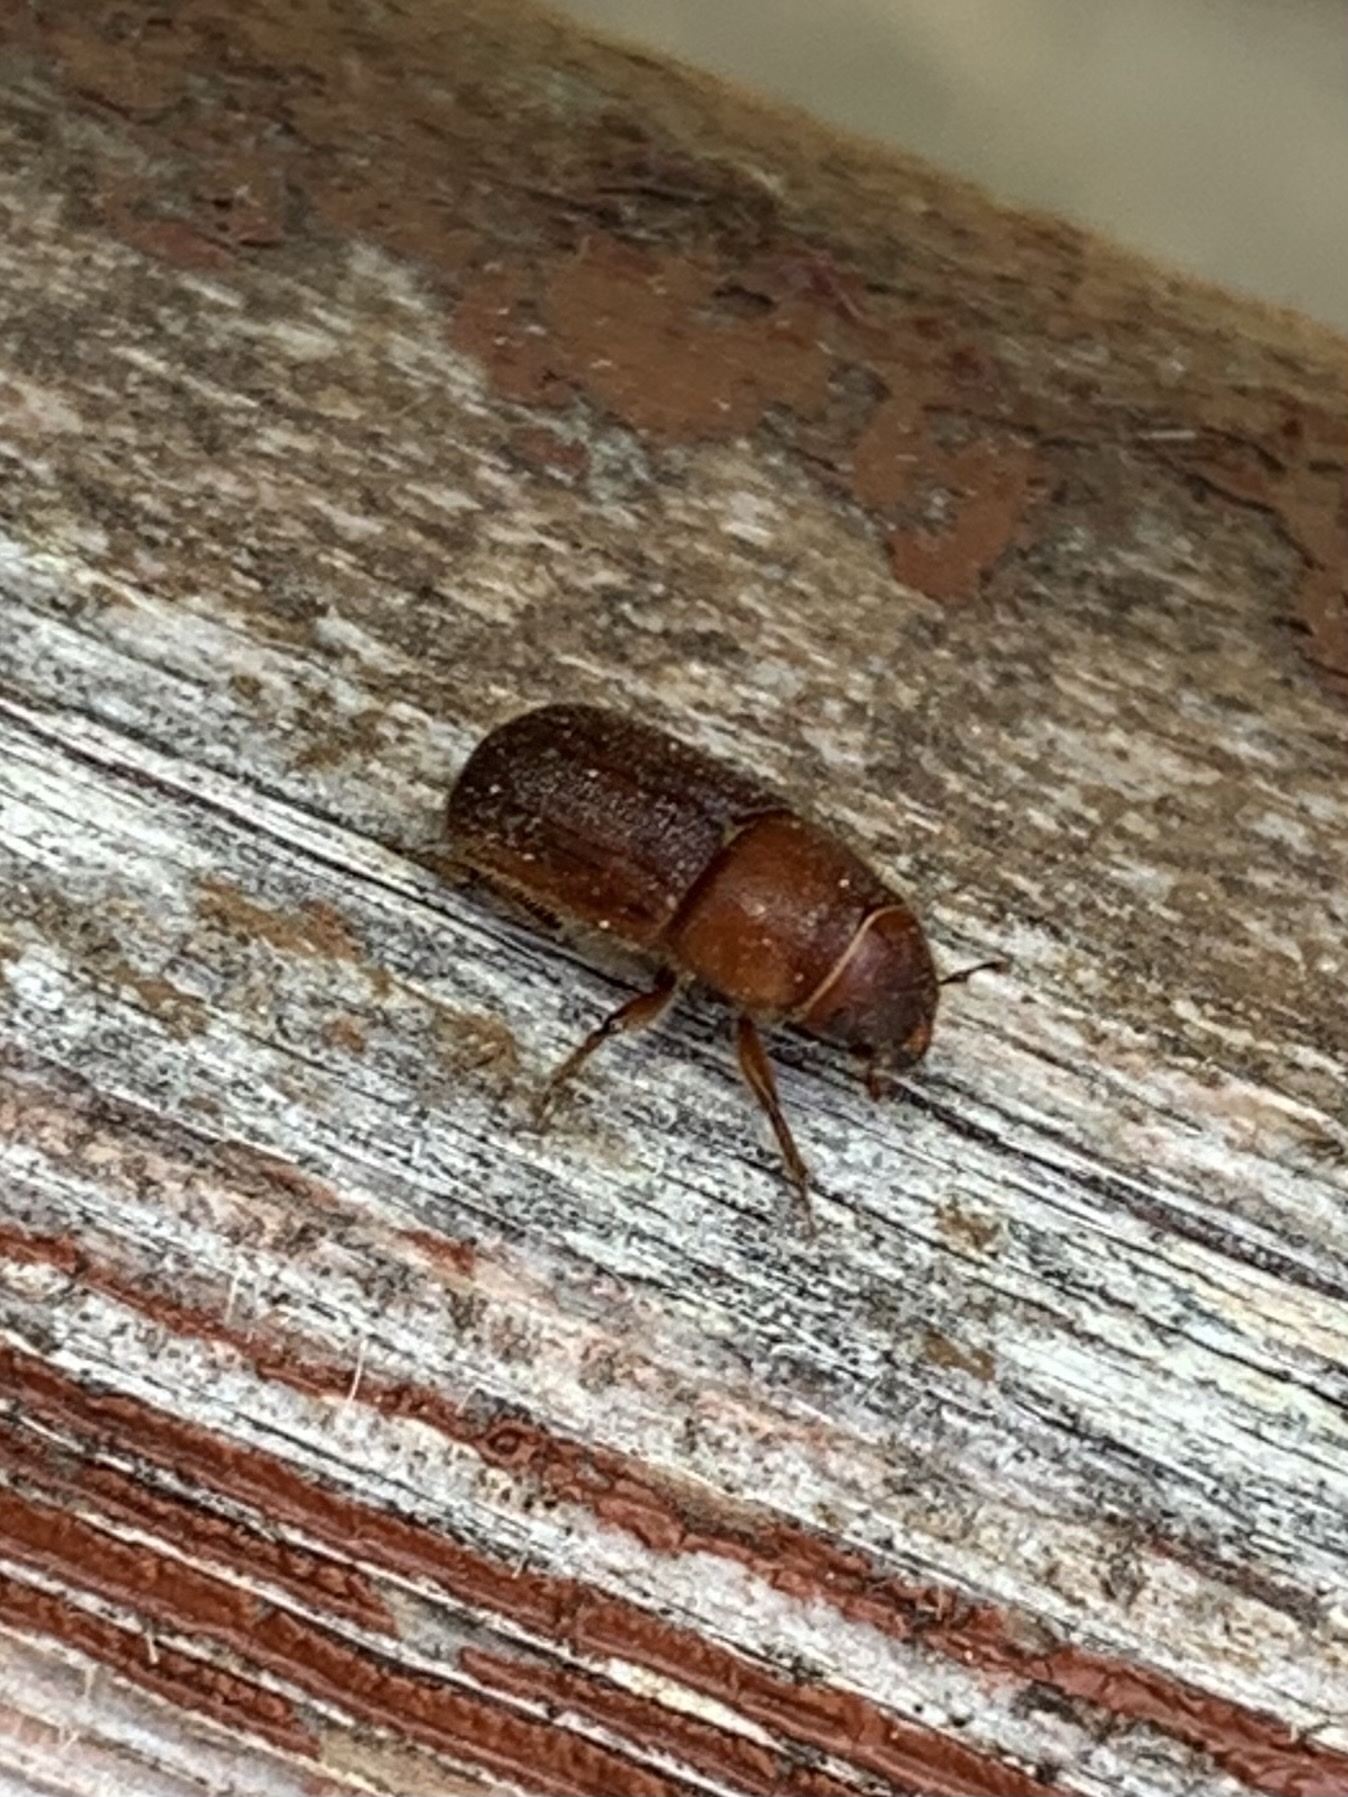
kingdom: Animalia
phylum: Arthropoda
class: Insecta
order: Coleoptera
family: Curculionidae
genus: Dendroctonus
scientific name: Dendroctonus valens
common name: Red turpentine beetle
